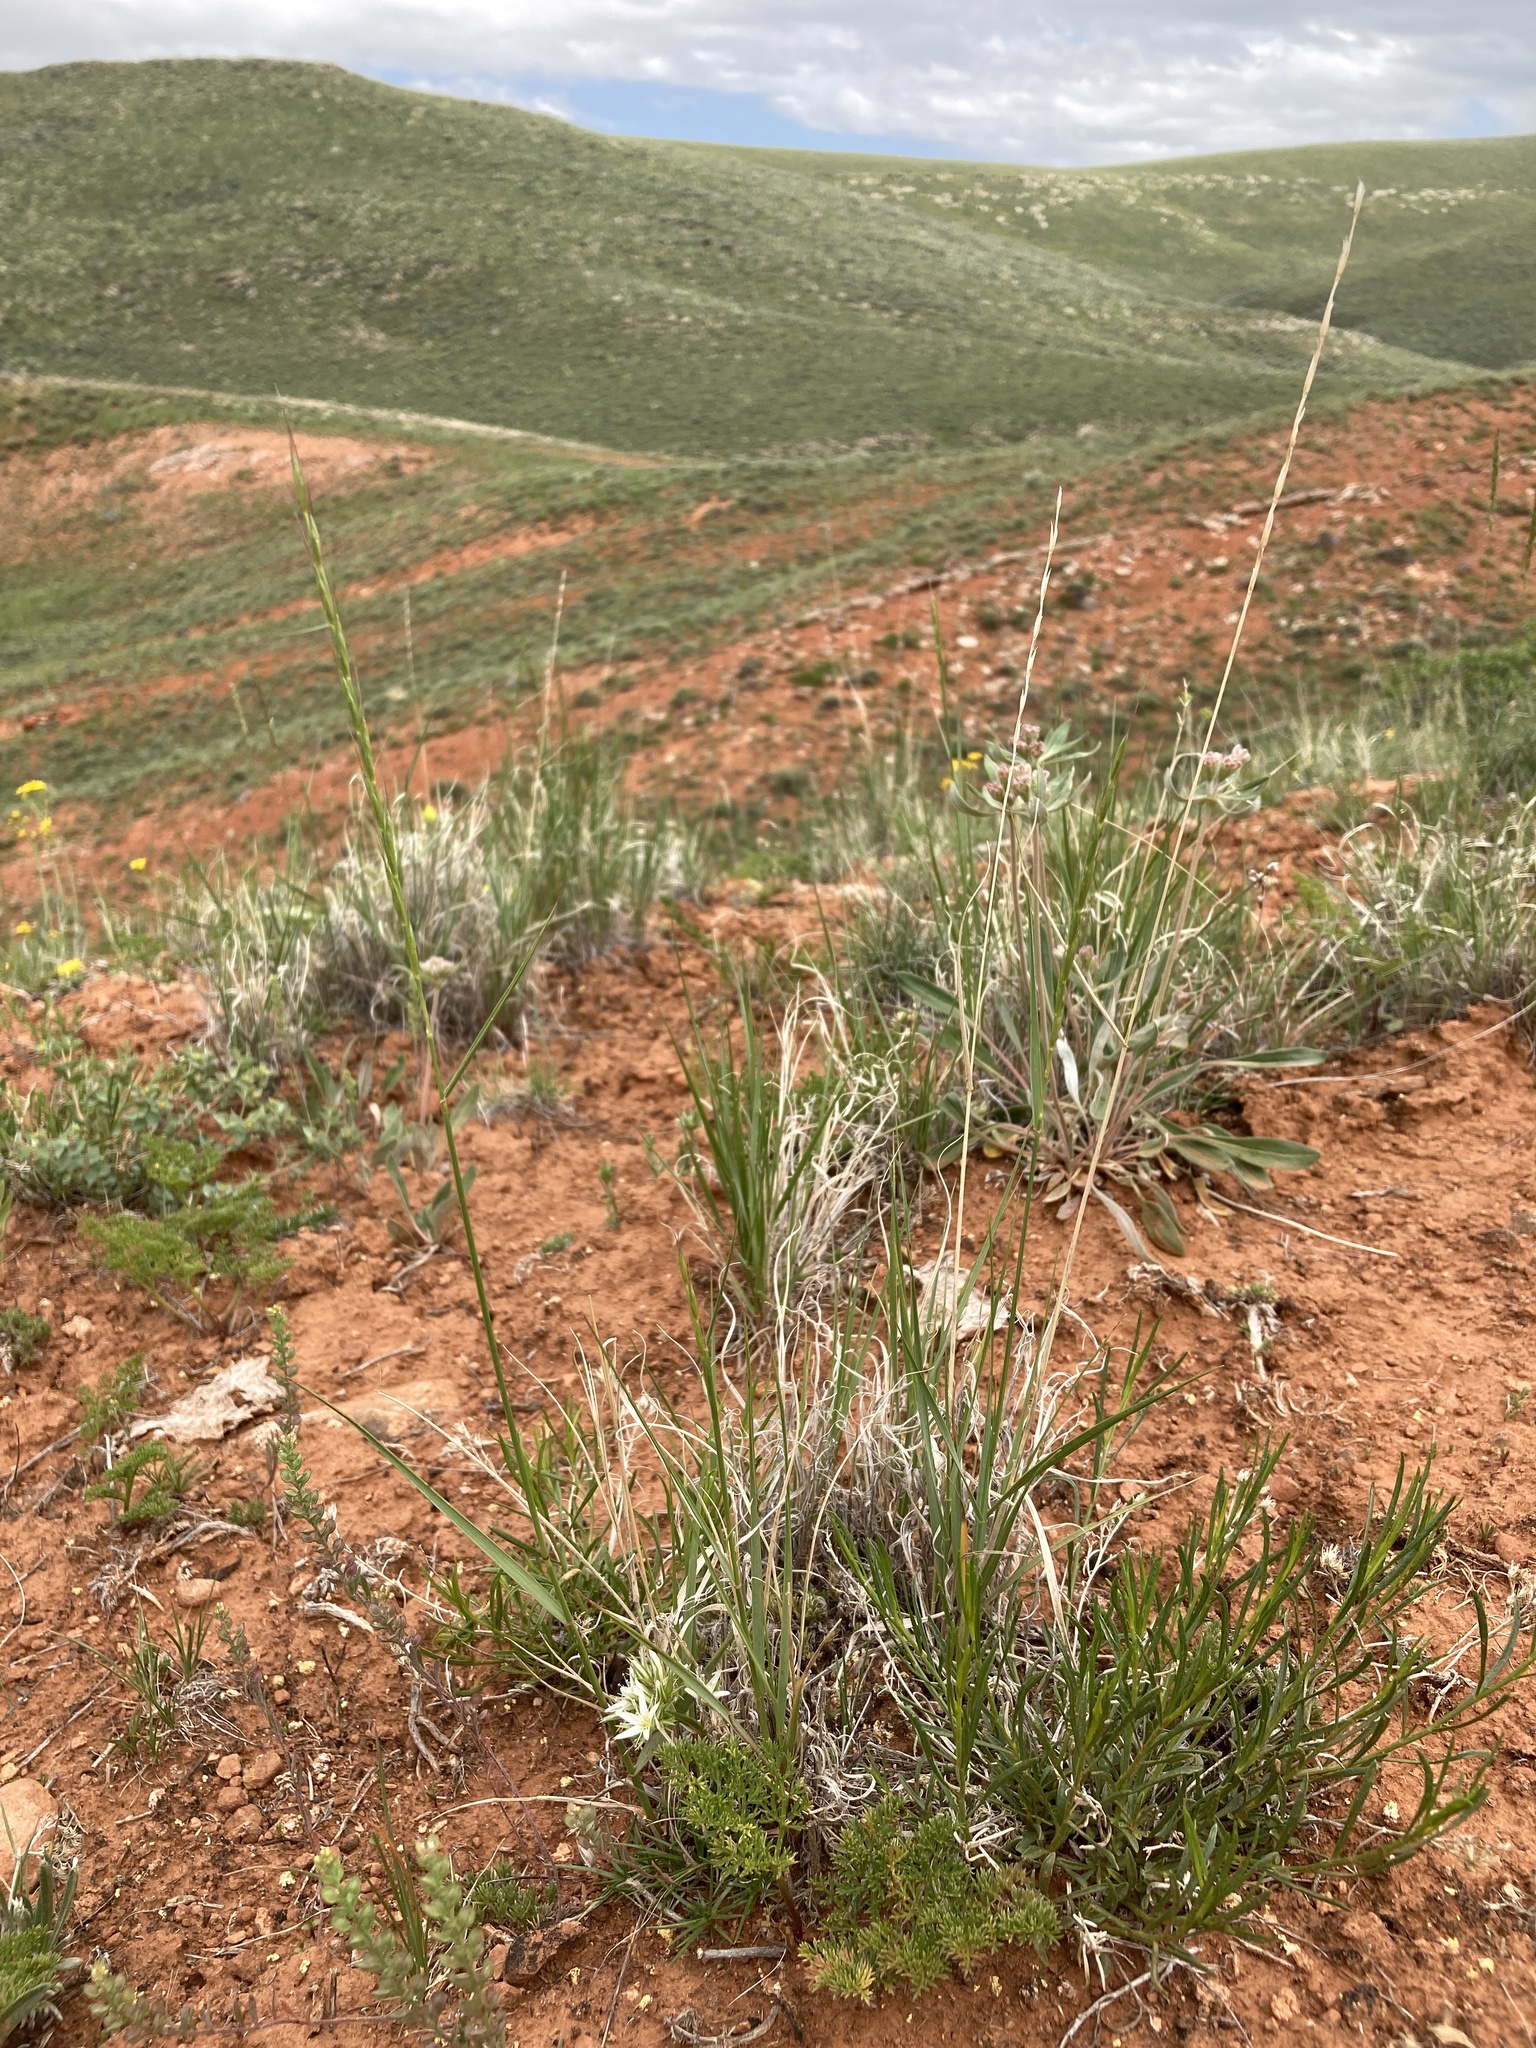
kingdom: Plantae
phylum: Tracheophyta
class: Liliopsida
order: Poales
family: Poaceae
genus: Pseudoroegneria
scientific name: Pseudoroegneria spicata
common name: Bluebunch wheatgrass
